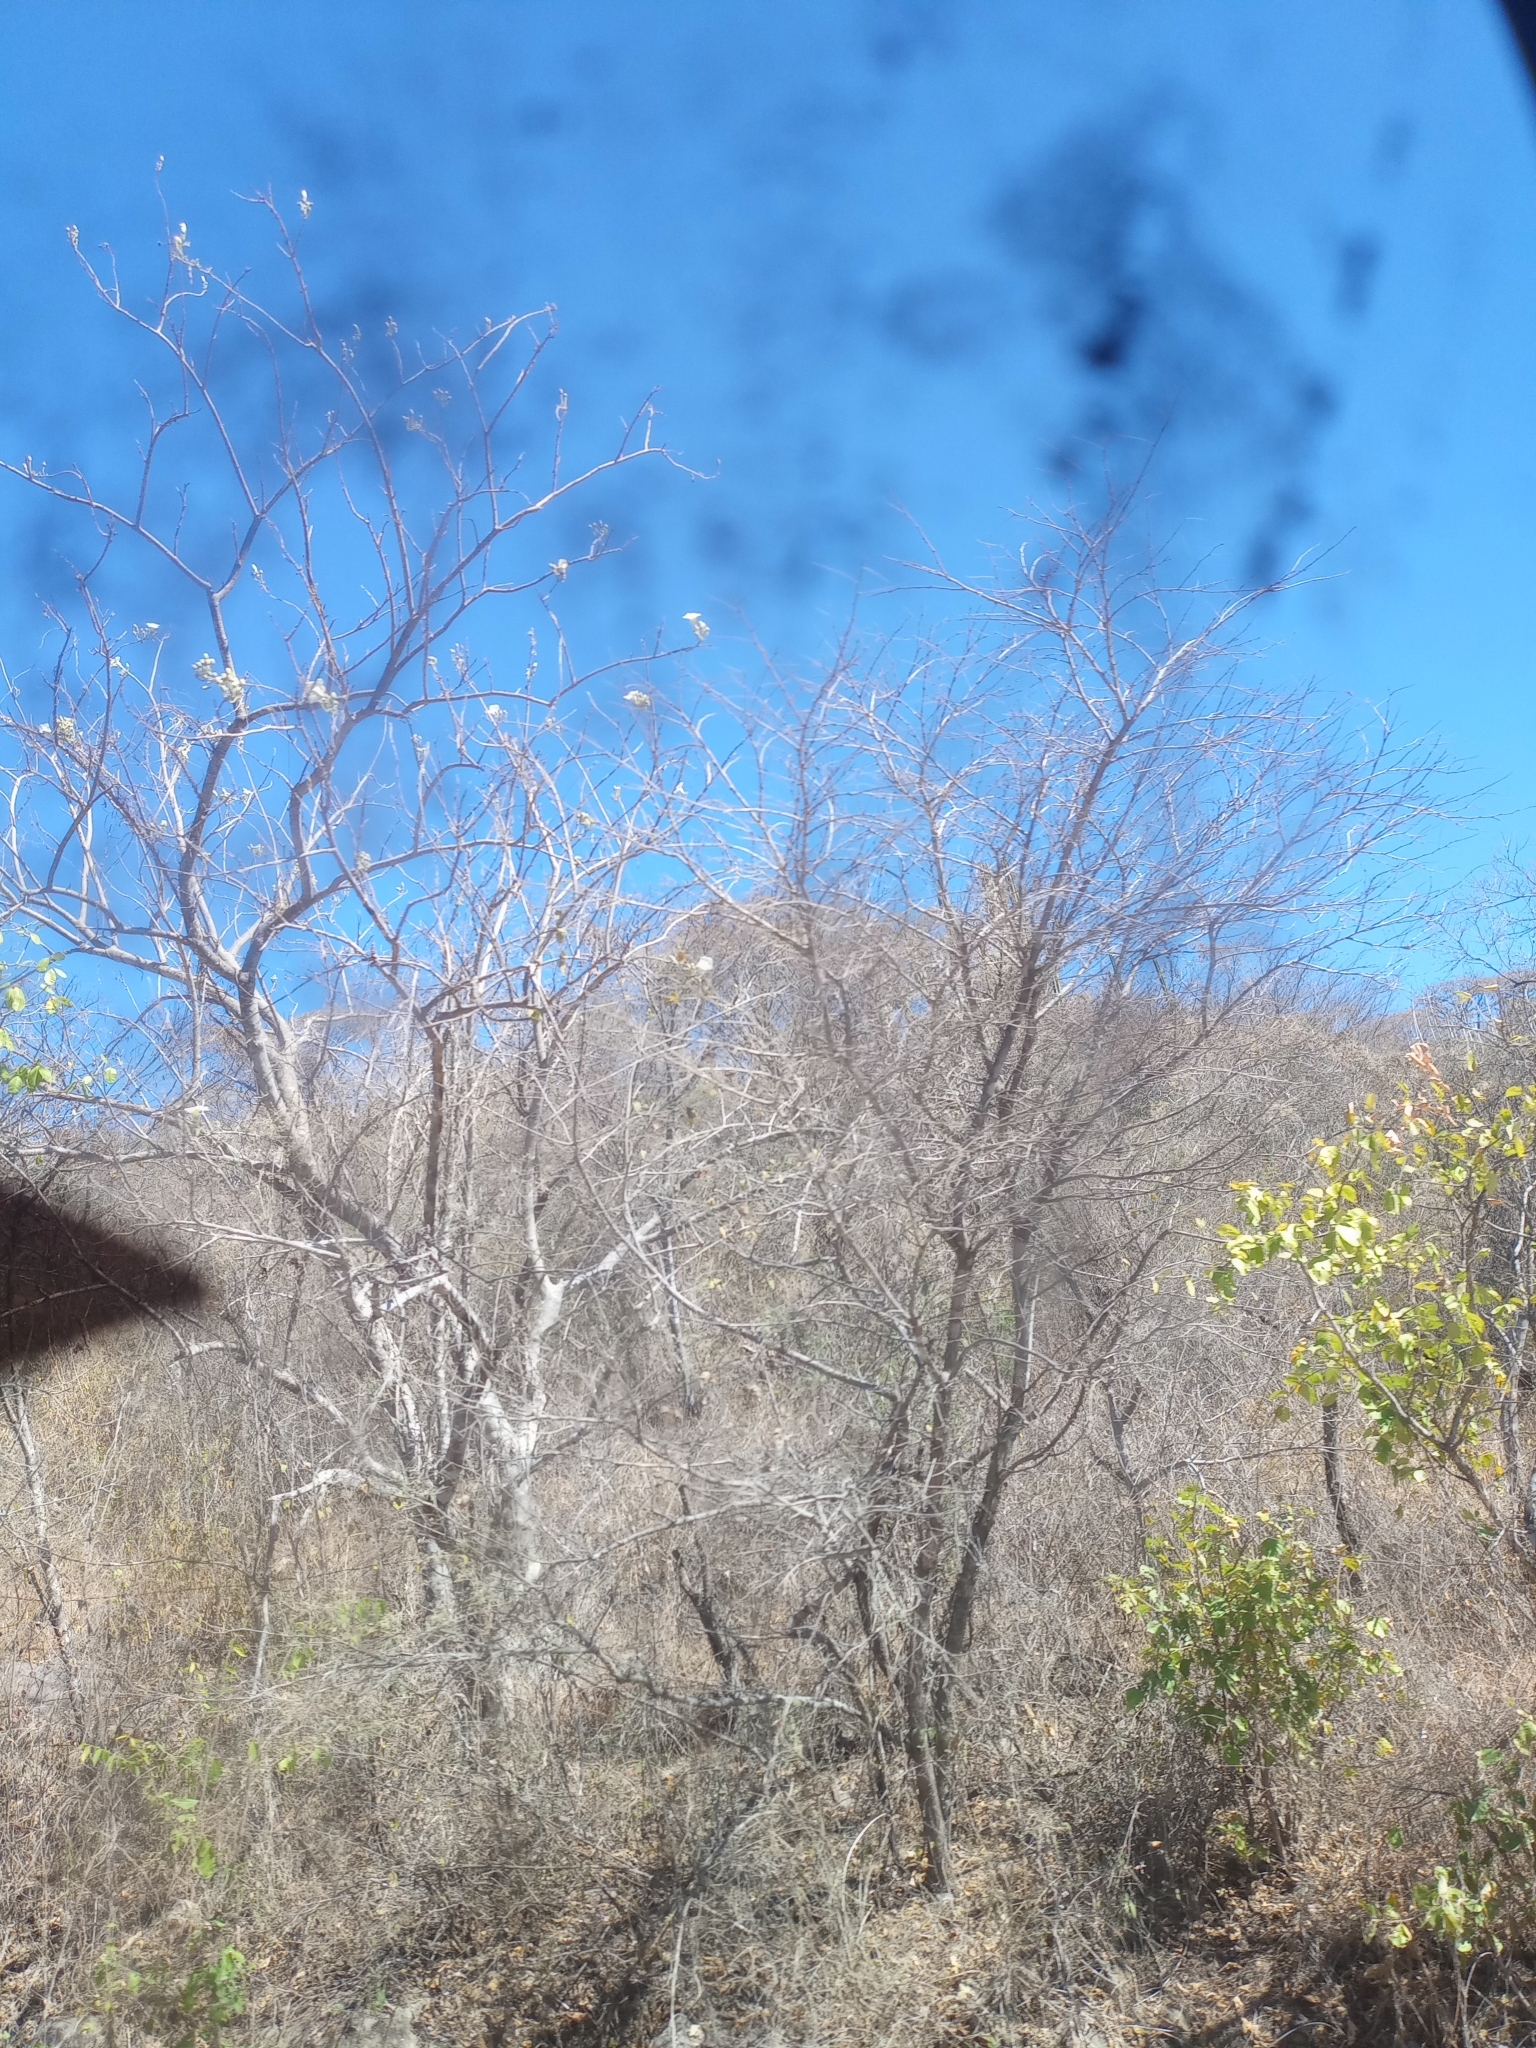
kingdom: Plantae
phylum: Tracheophyta
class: Magnoliopsida
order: Solanales
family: Convolvulaceae
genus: Ipomoea
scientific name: Ipomoea arborescens
